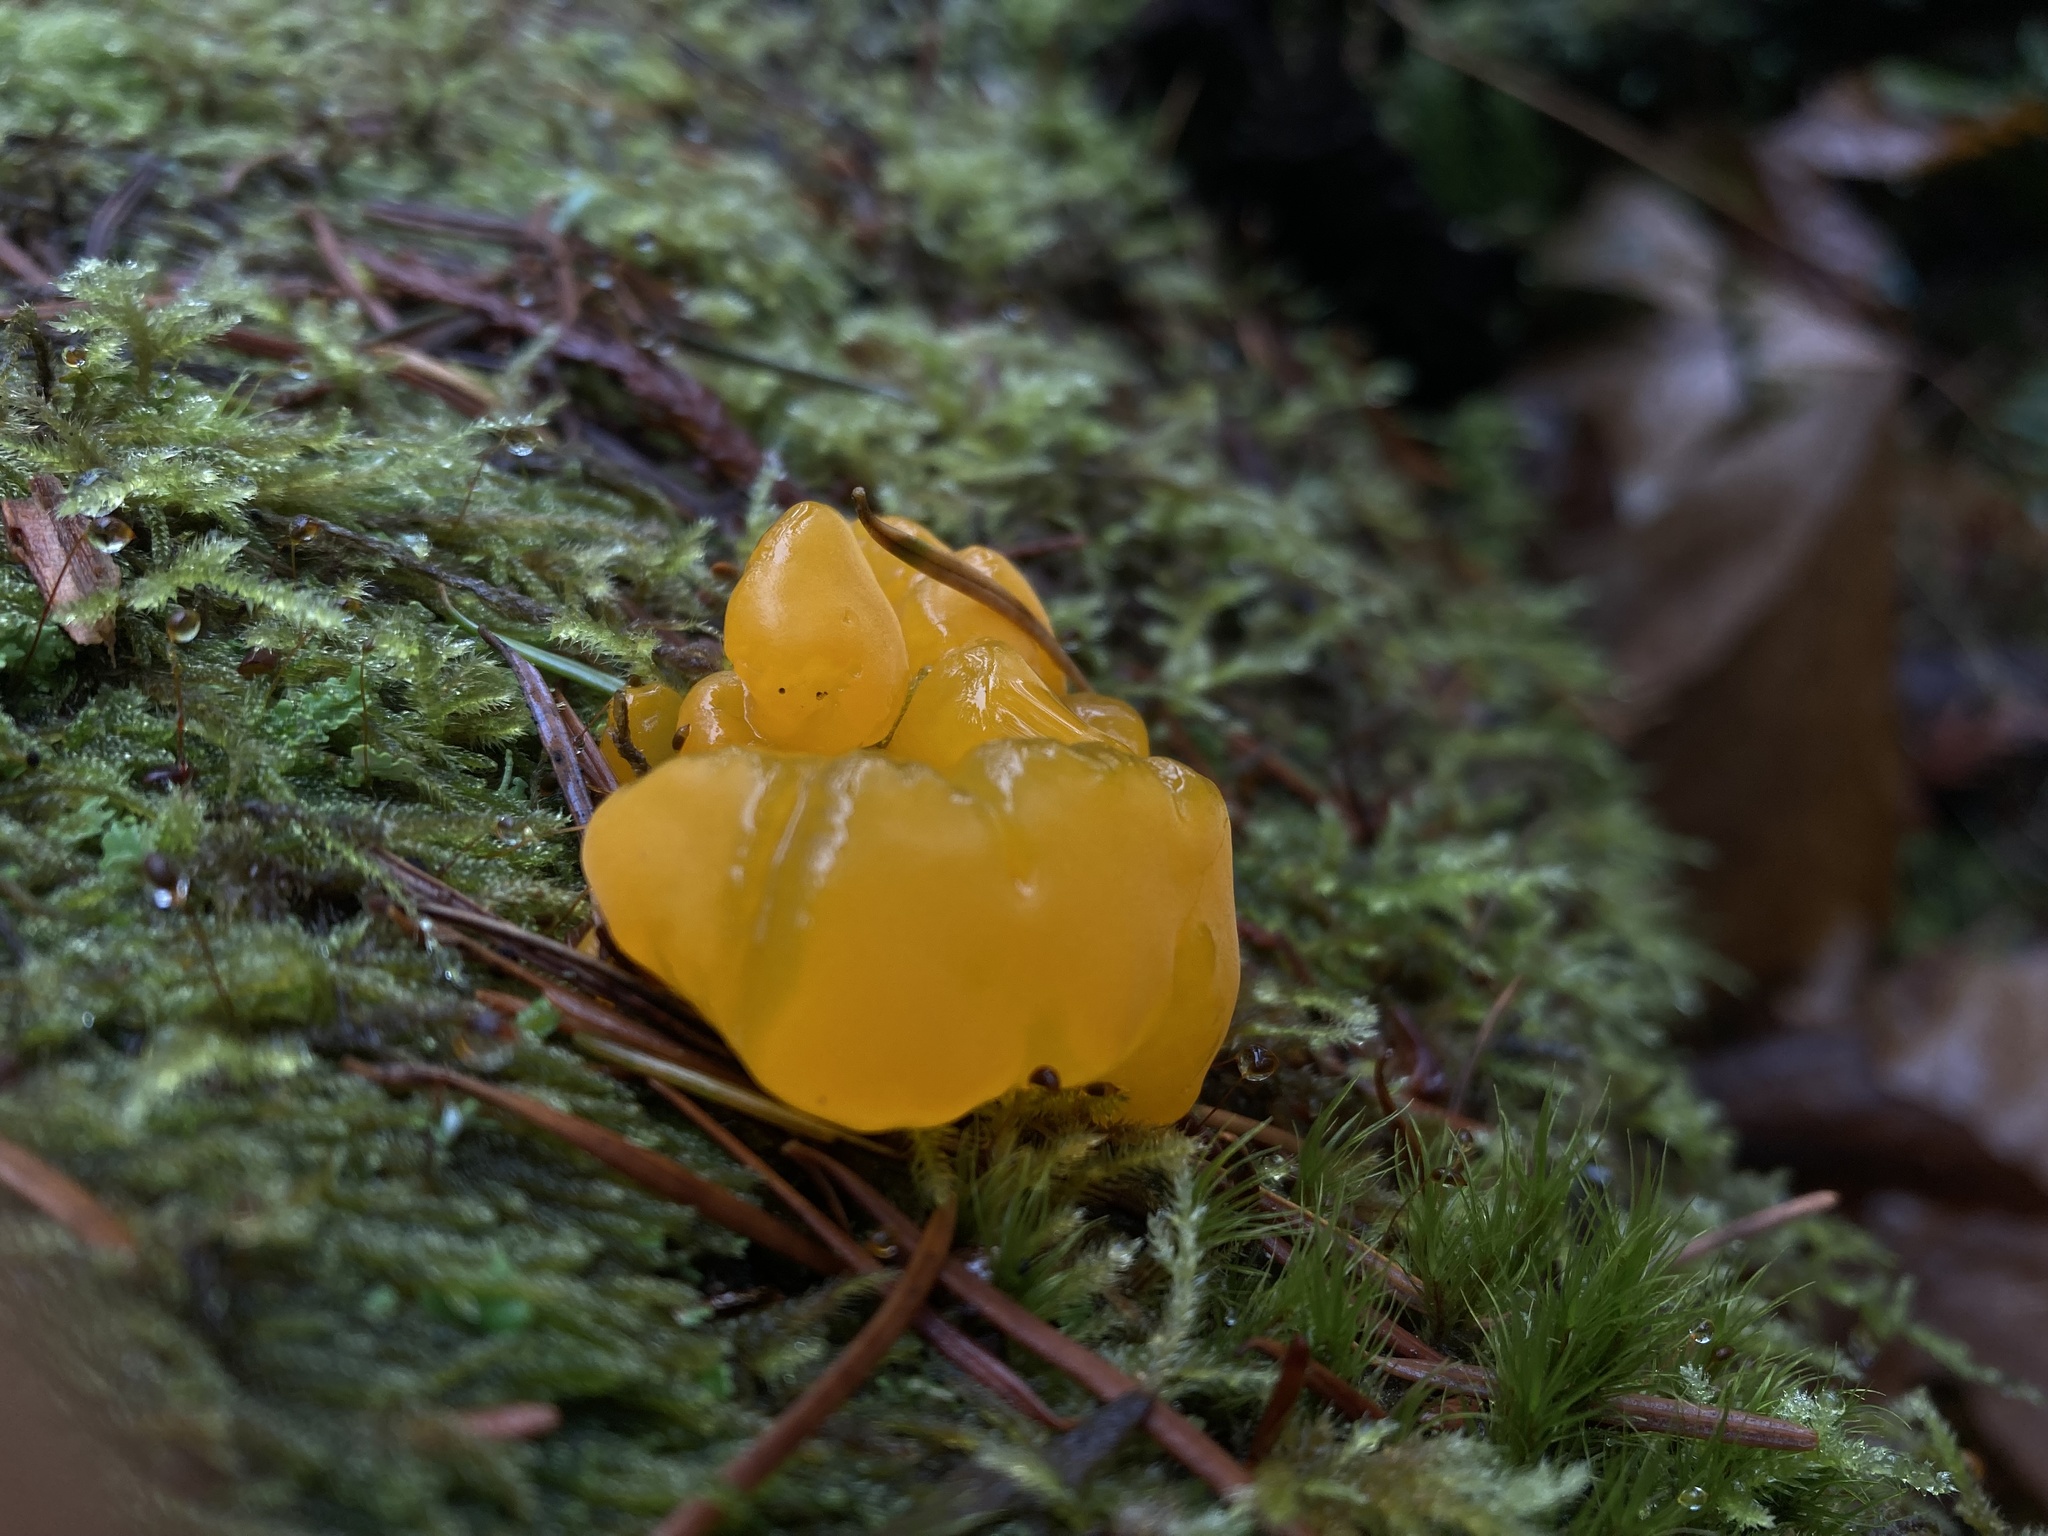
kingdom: Fungi
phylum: Basidiomycota
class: Dacrymycetes
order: Dacrymycetales
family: Dacrymycetaceae
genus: Dacrymyces
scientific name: Dacrymyces chrysospermus
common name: Orange jelly spot
